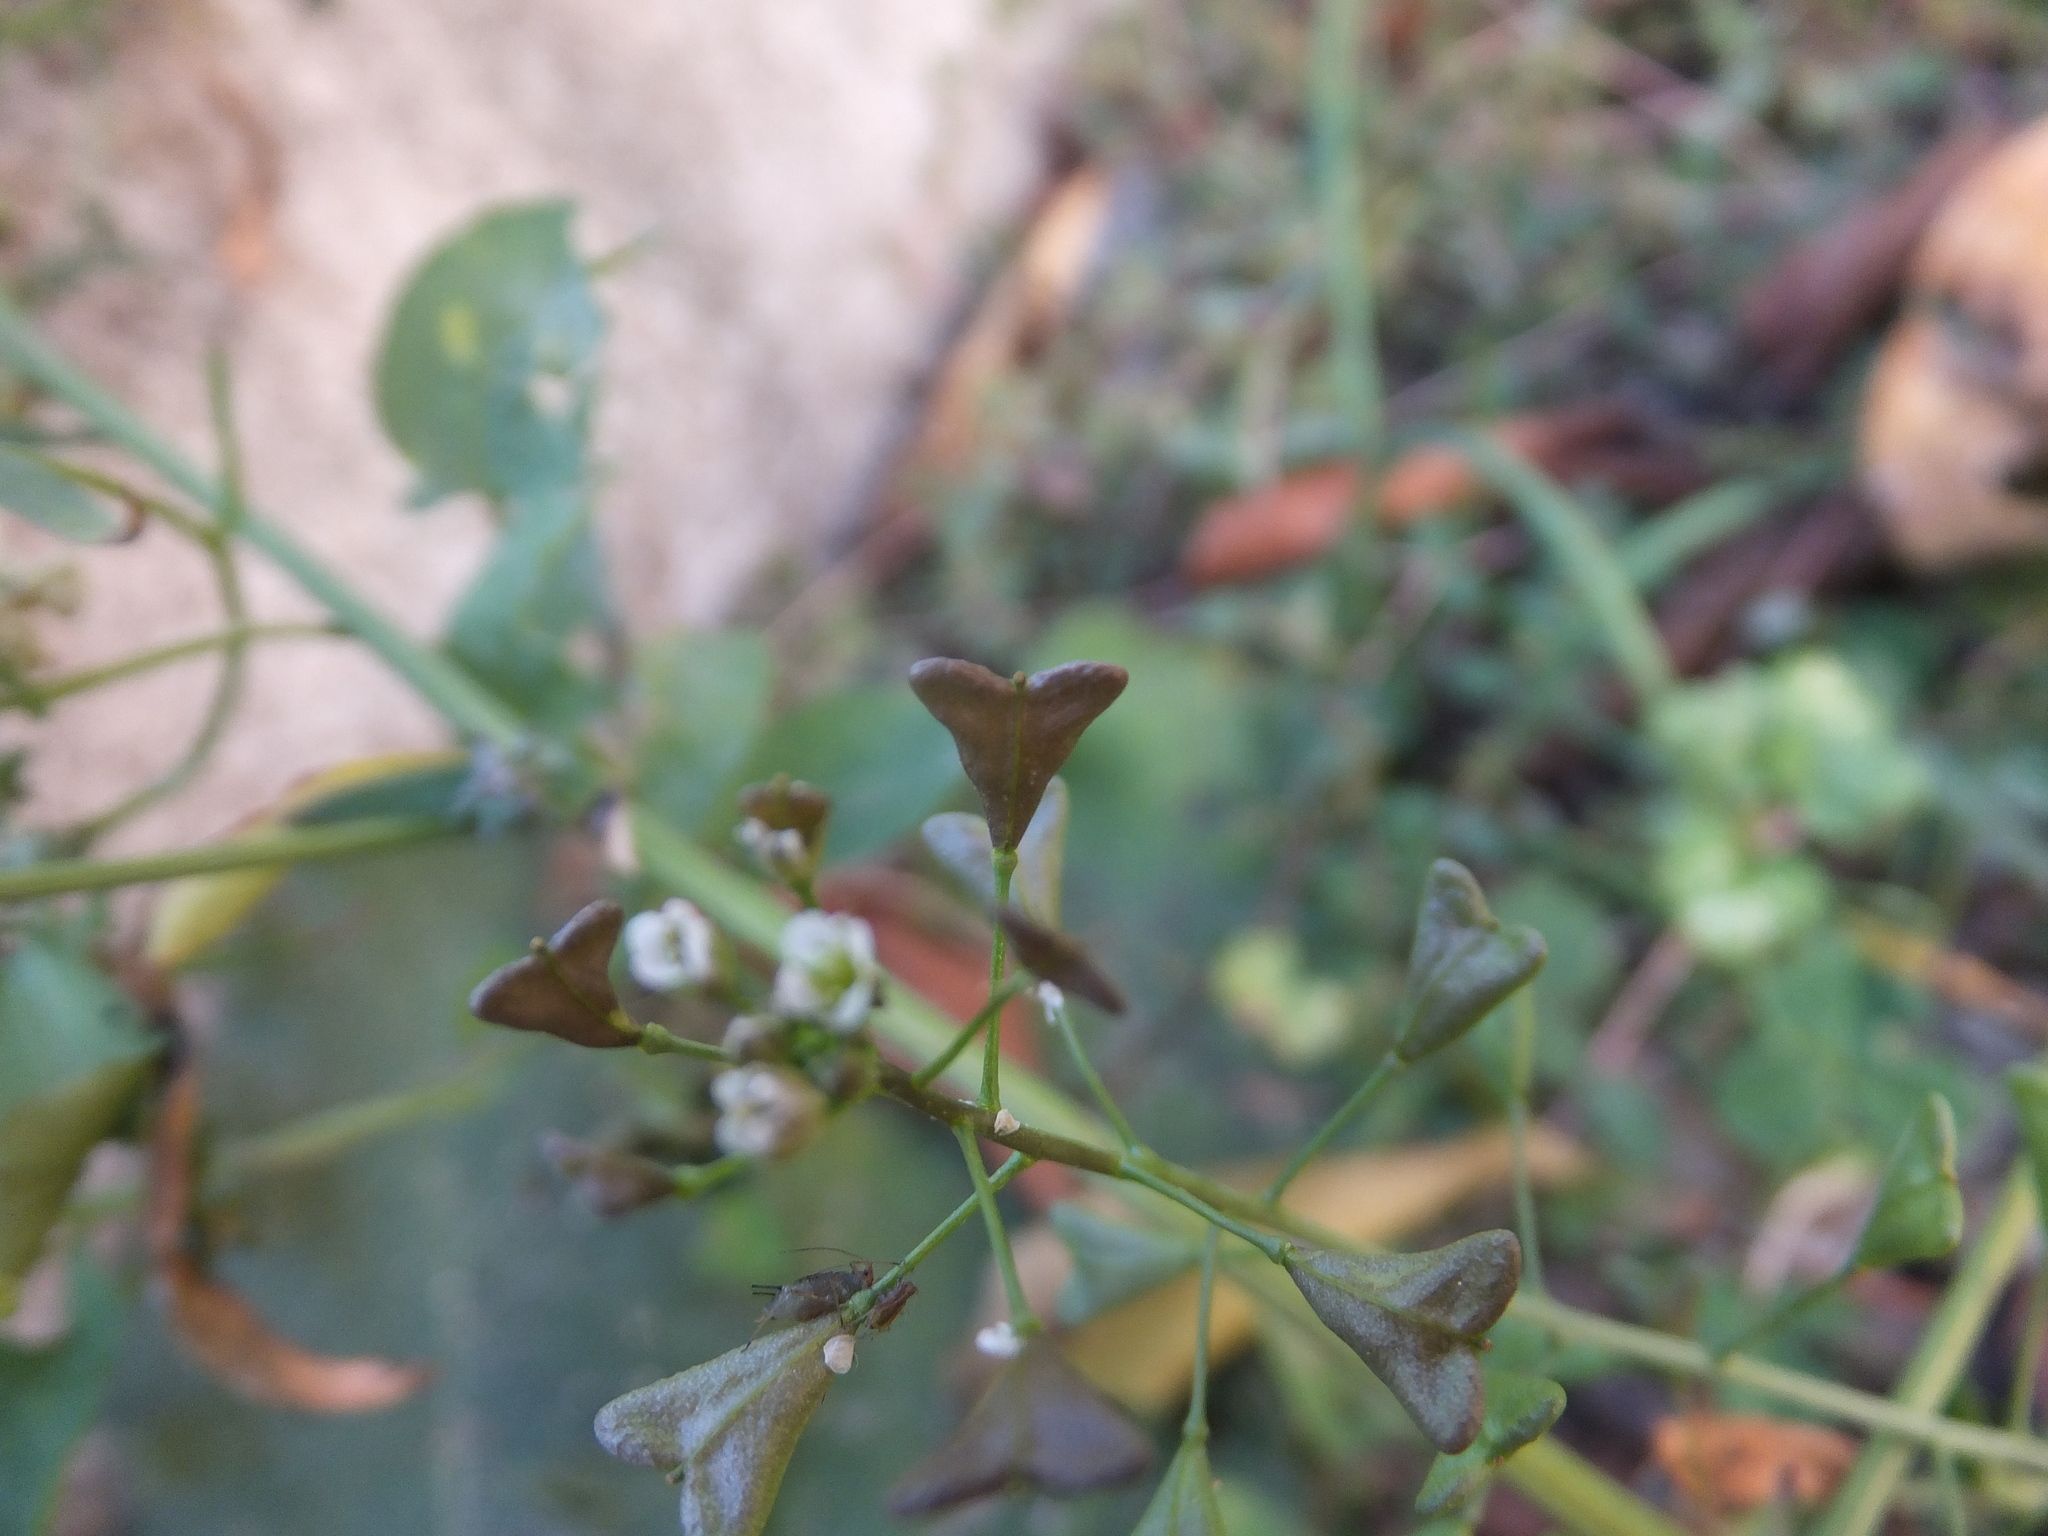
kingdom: Plantae
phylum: Tracheophyta
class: Magnoliopsida
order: Brassicales
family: Brassicaceae
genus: Capsella
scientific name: Capsella bursa-pastoris
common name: Shepherd's purse
